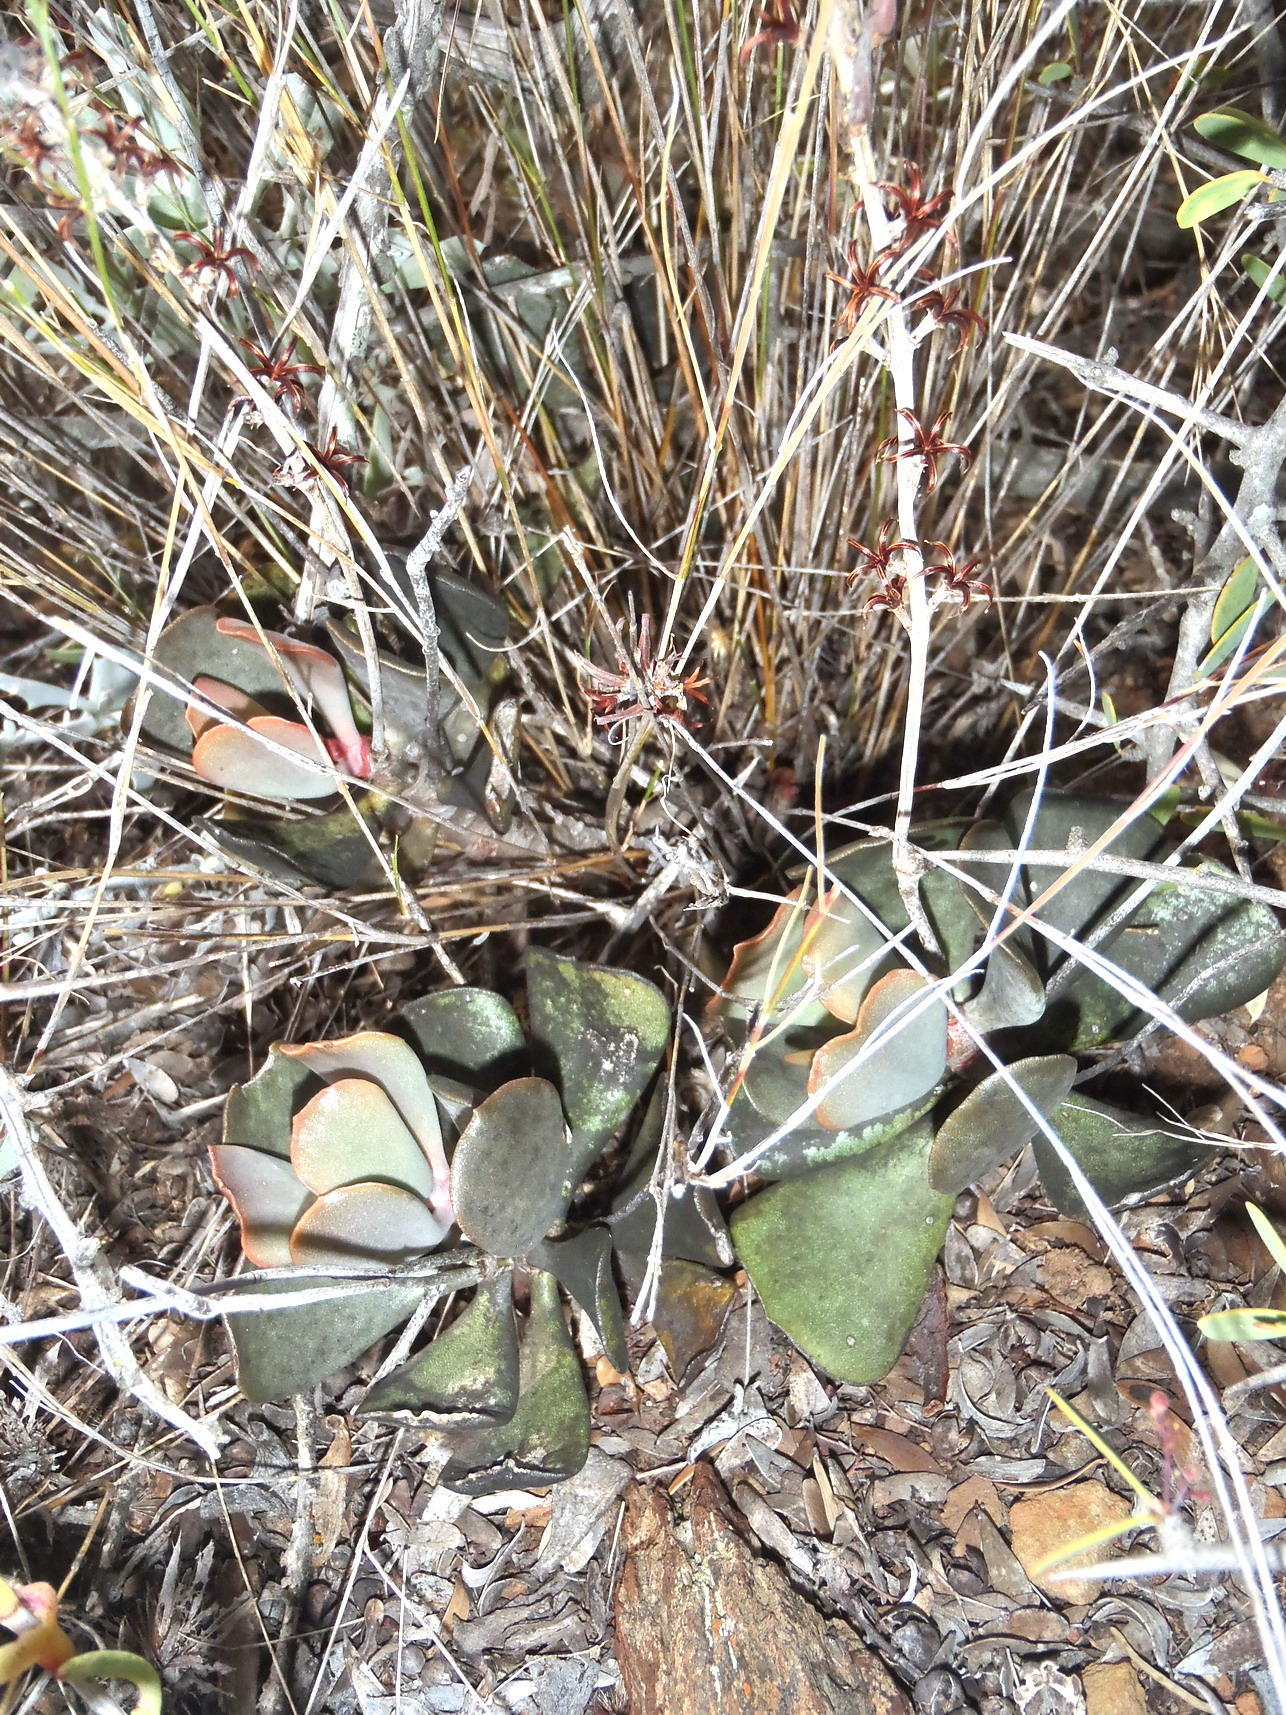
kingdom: Plantae
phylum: Tracheophyta
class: Magnoliopsida
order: Saxifragales
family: Crassulaceae
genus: Adromischus
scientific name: Adromischus triflorus
